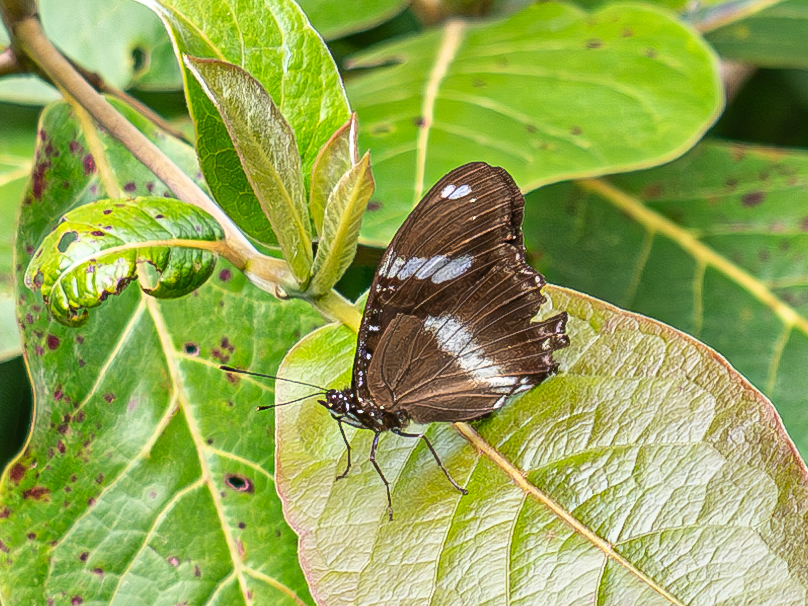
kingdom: Animalia
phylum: Arthropoda
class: Insecta
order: Lepidoptera
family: Nymphalidae
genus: Hypolimnas
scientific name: Hypolimnas bolina
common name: Great eggfly
